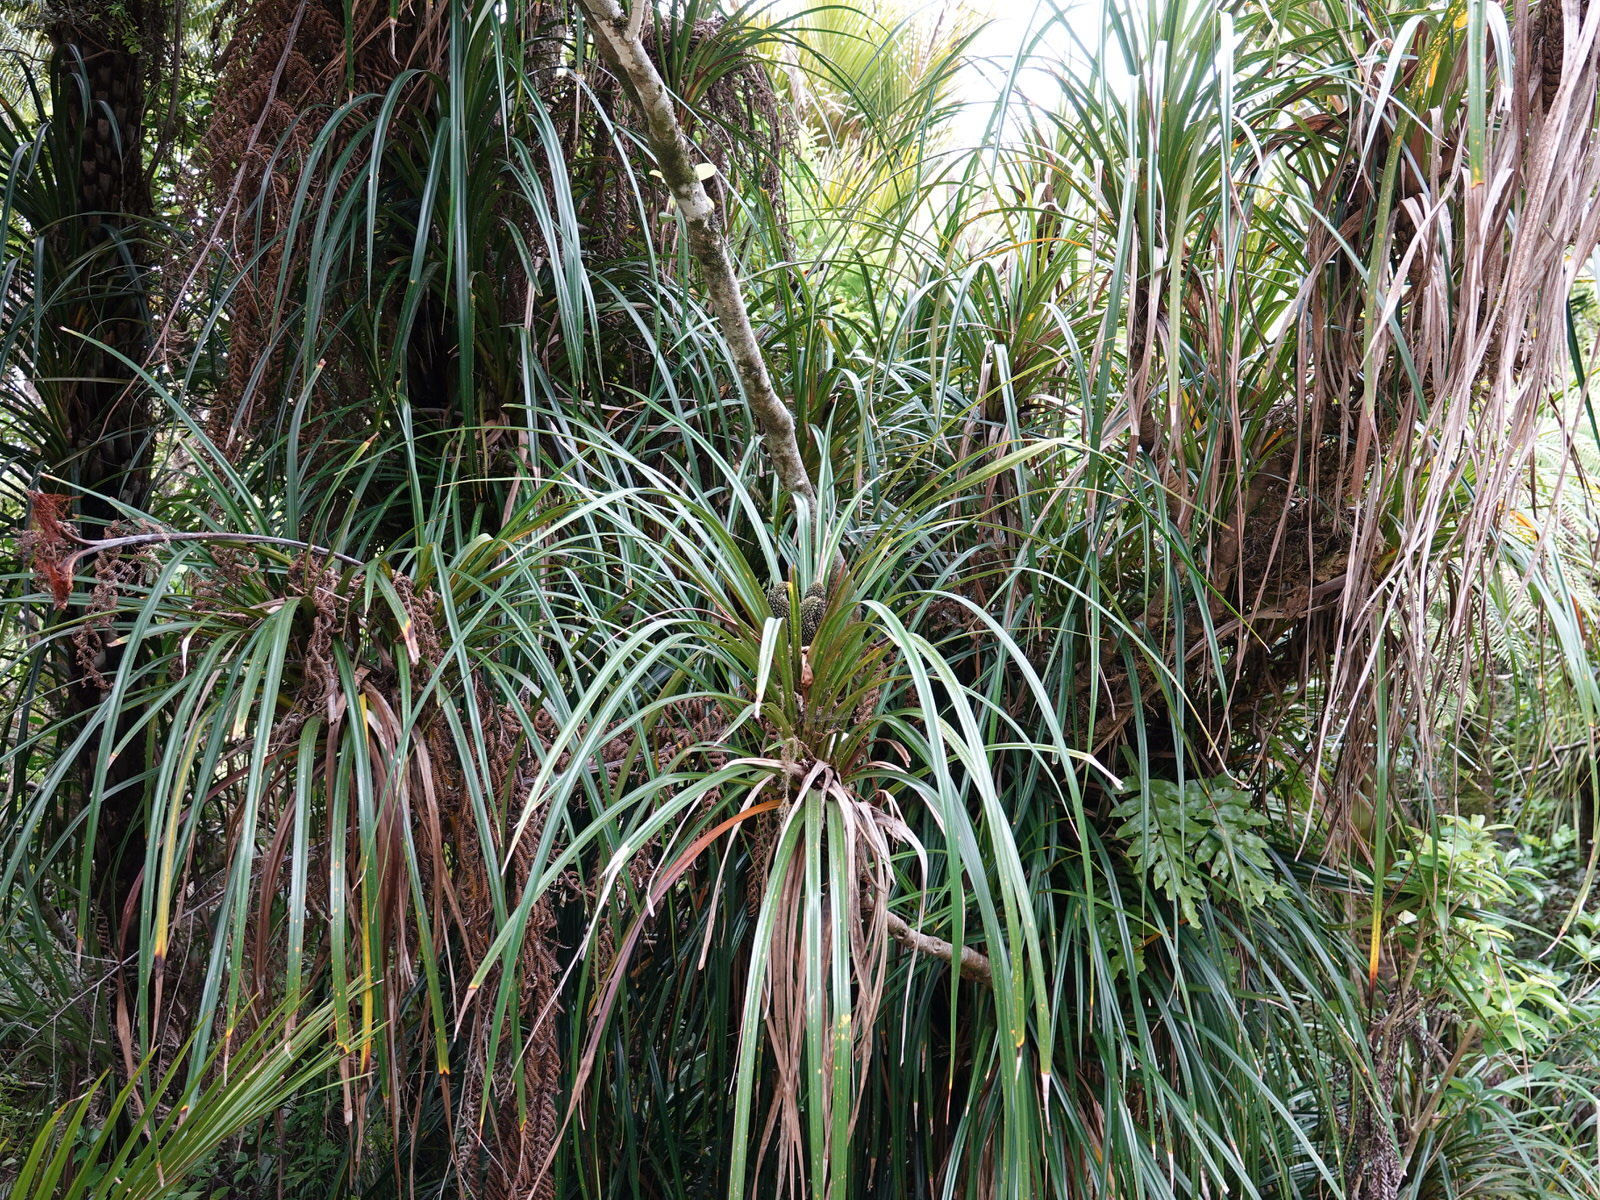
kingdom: Plantae
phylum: Tracheophyta
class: Liliopsida
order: Pandanales
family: Pandanaceae
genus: Freycinetia
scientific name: Freycinetia banksii
